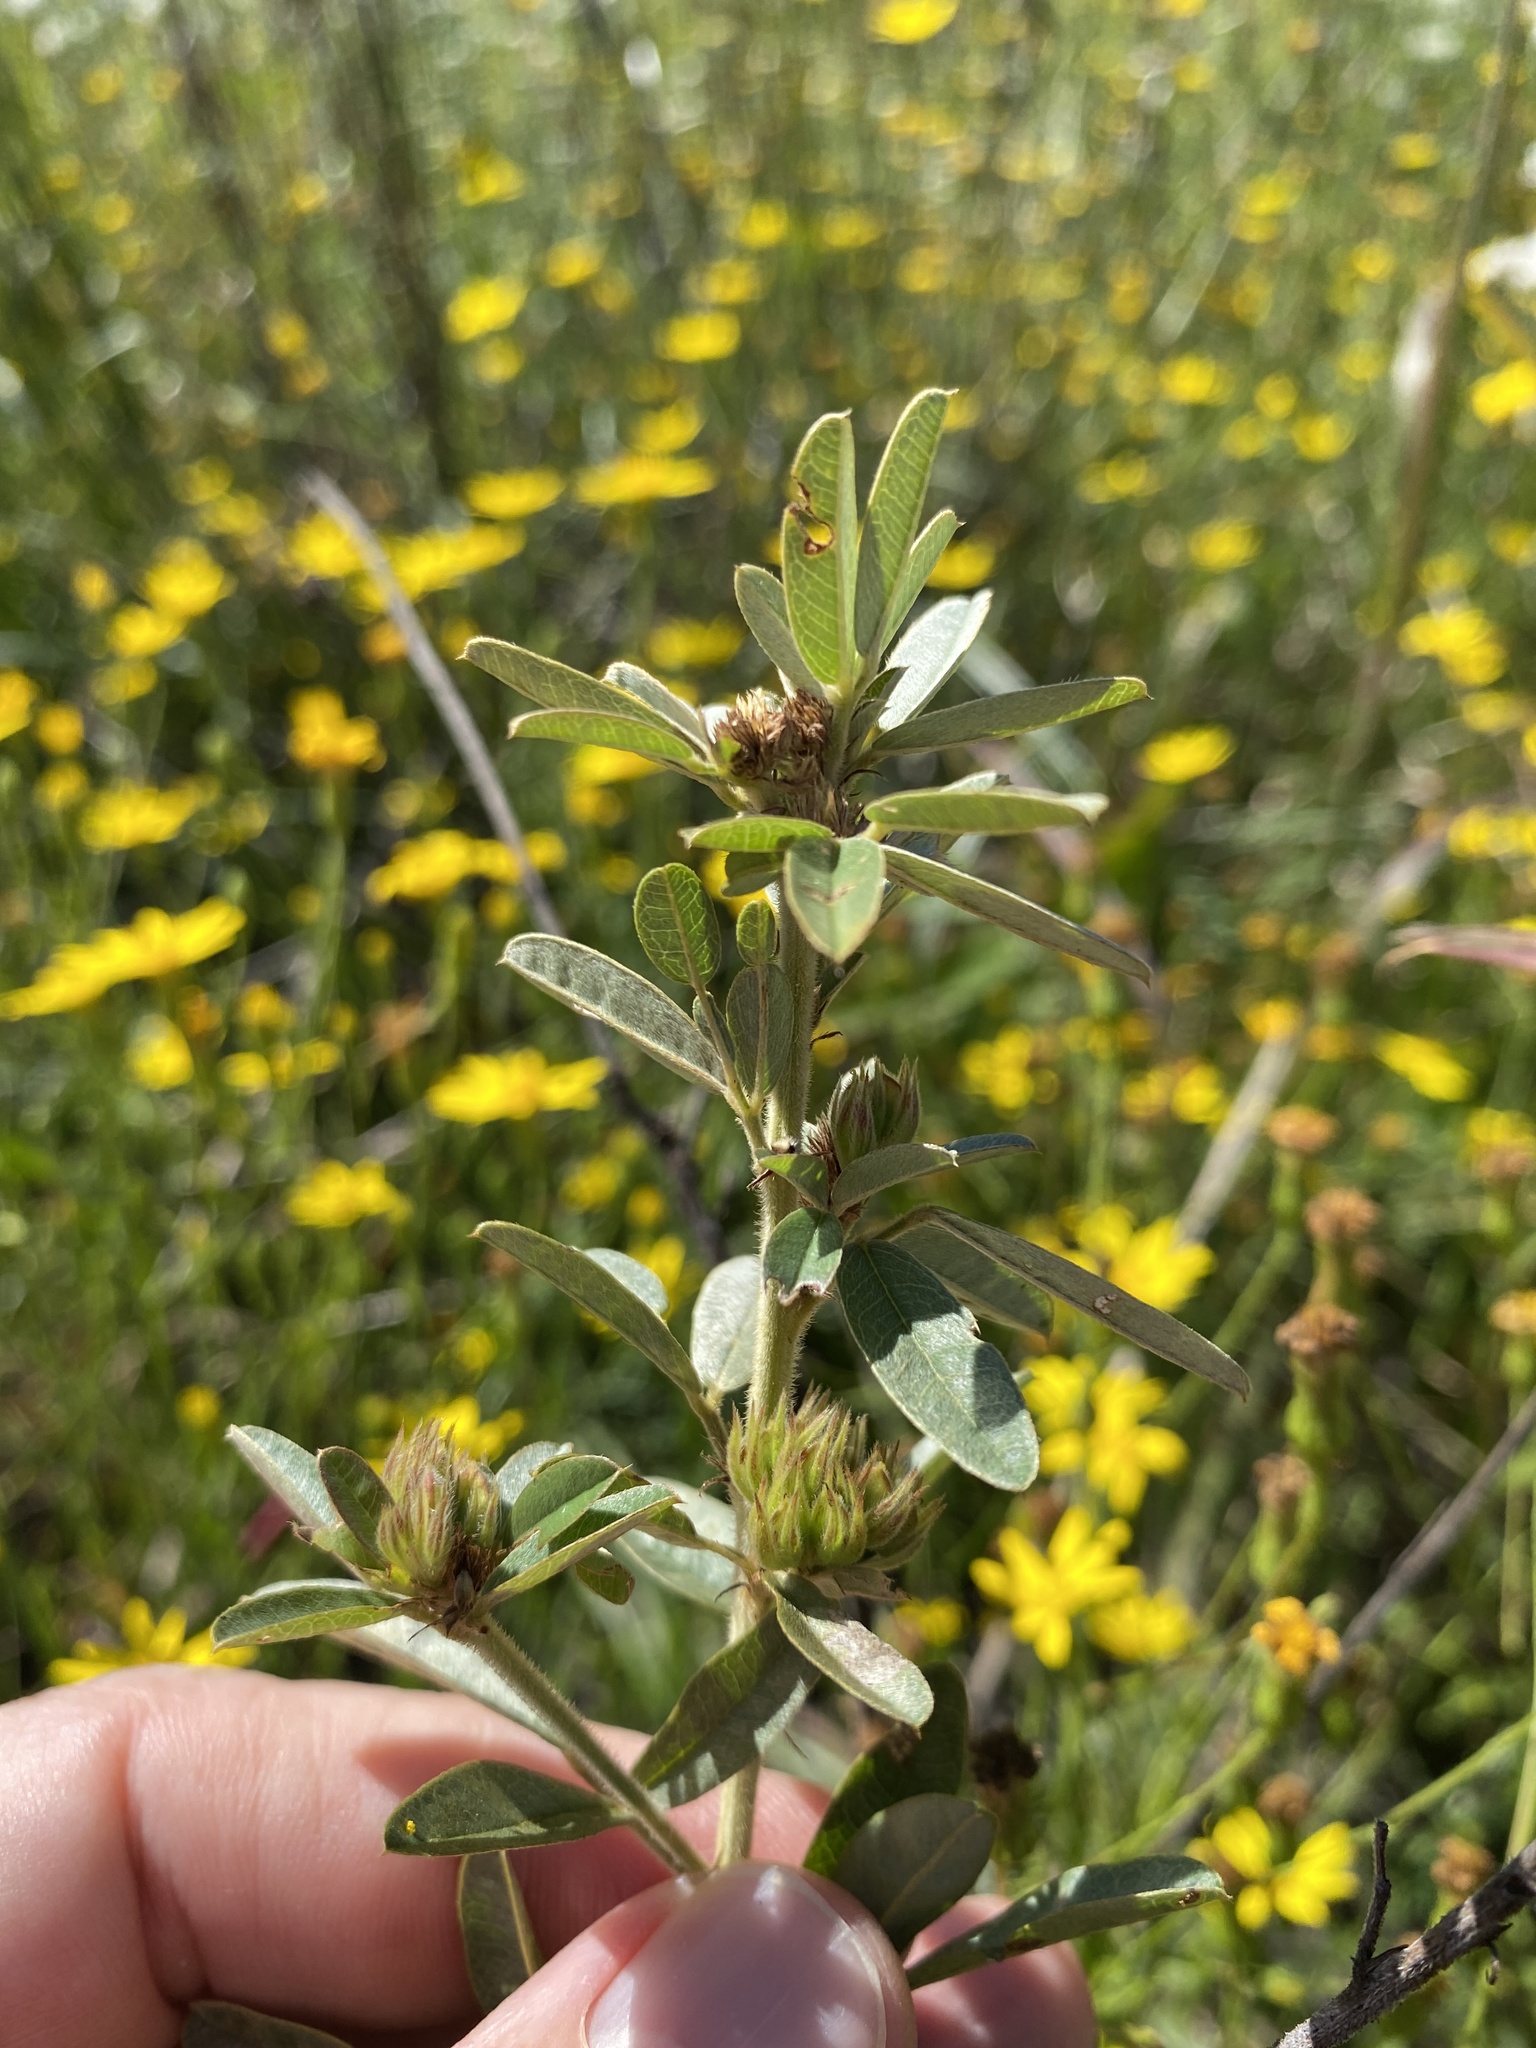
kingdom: Plantae
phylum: Tracheophyta
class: Magnoliopsida
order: Fabales
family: Fabaceae
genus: Lespedeza
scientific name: Lespedeza capitata
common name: Dusty clover
